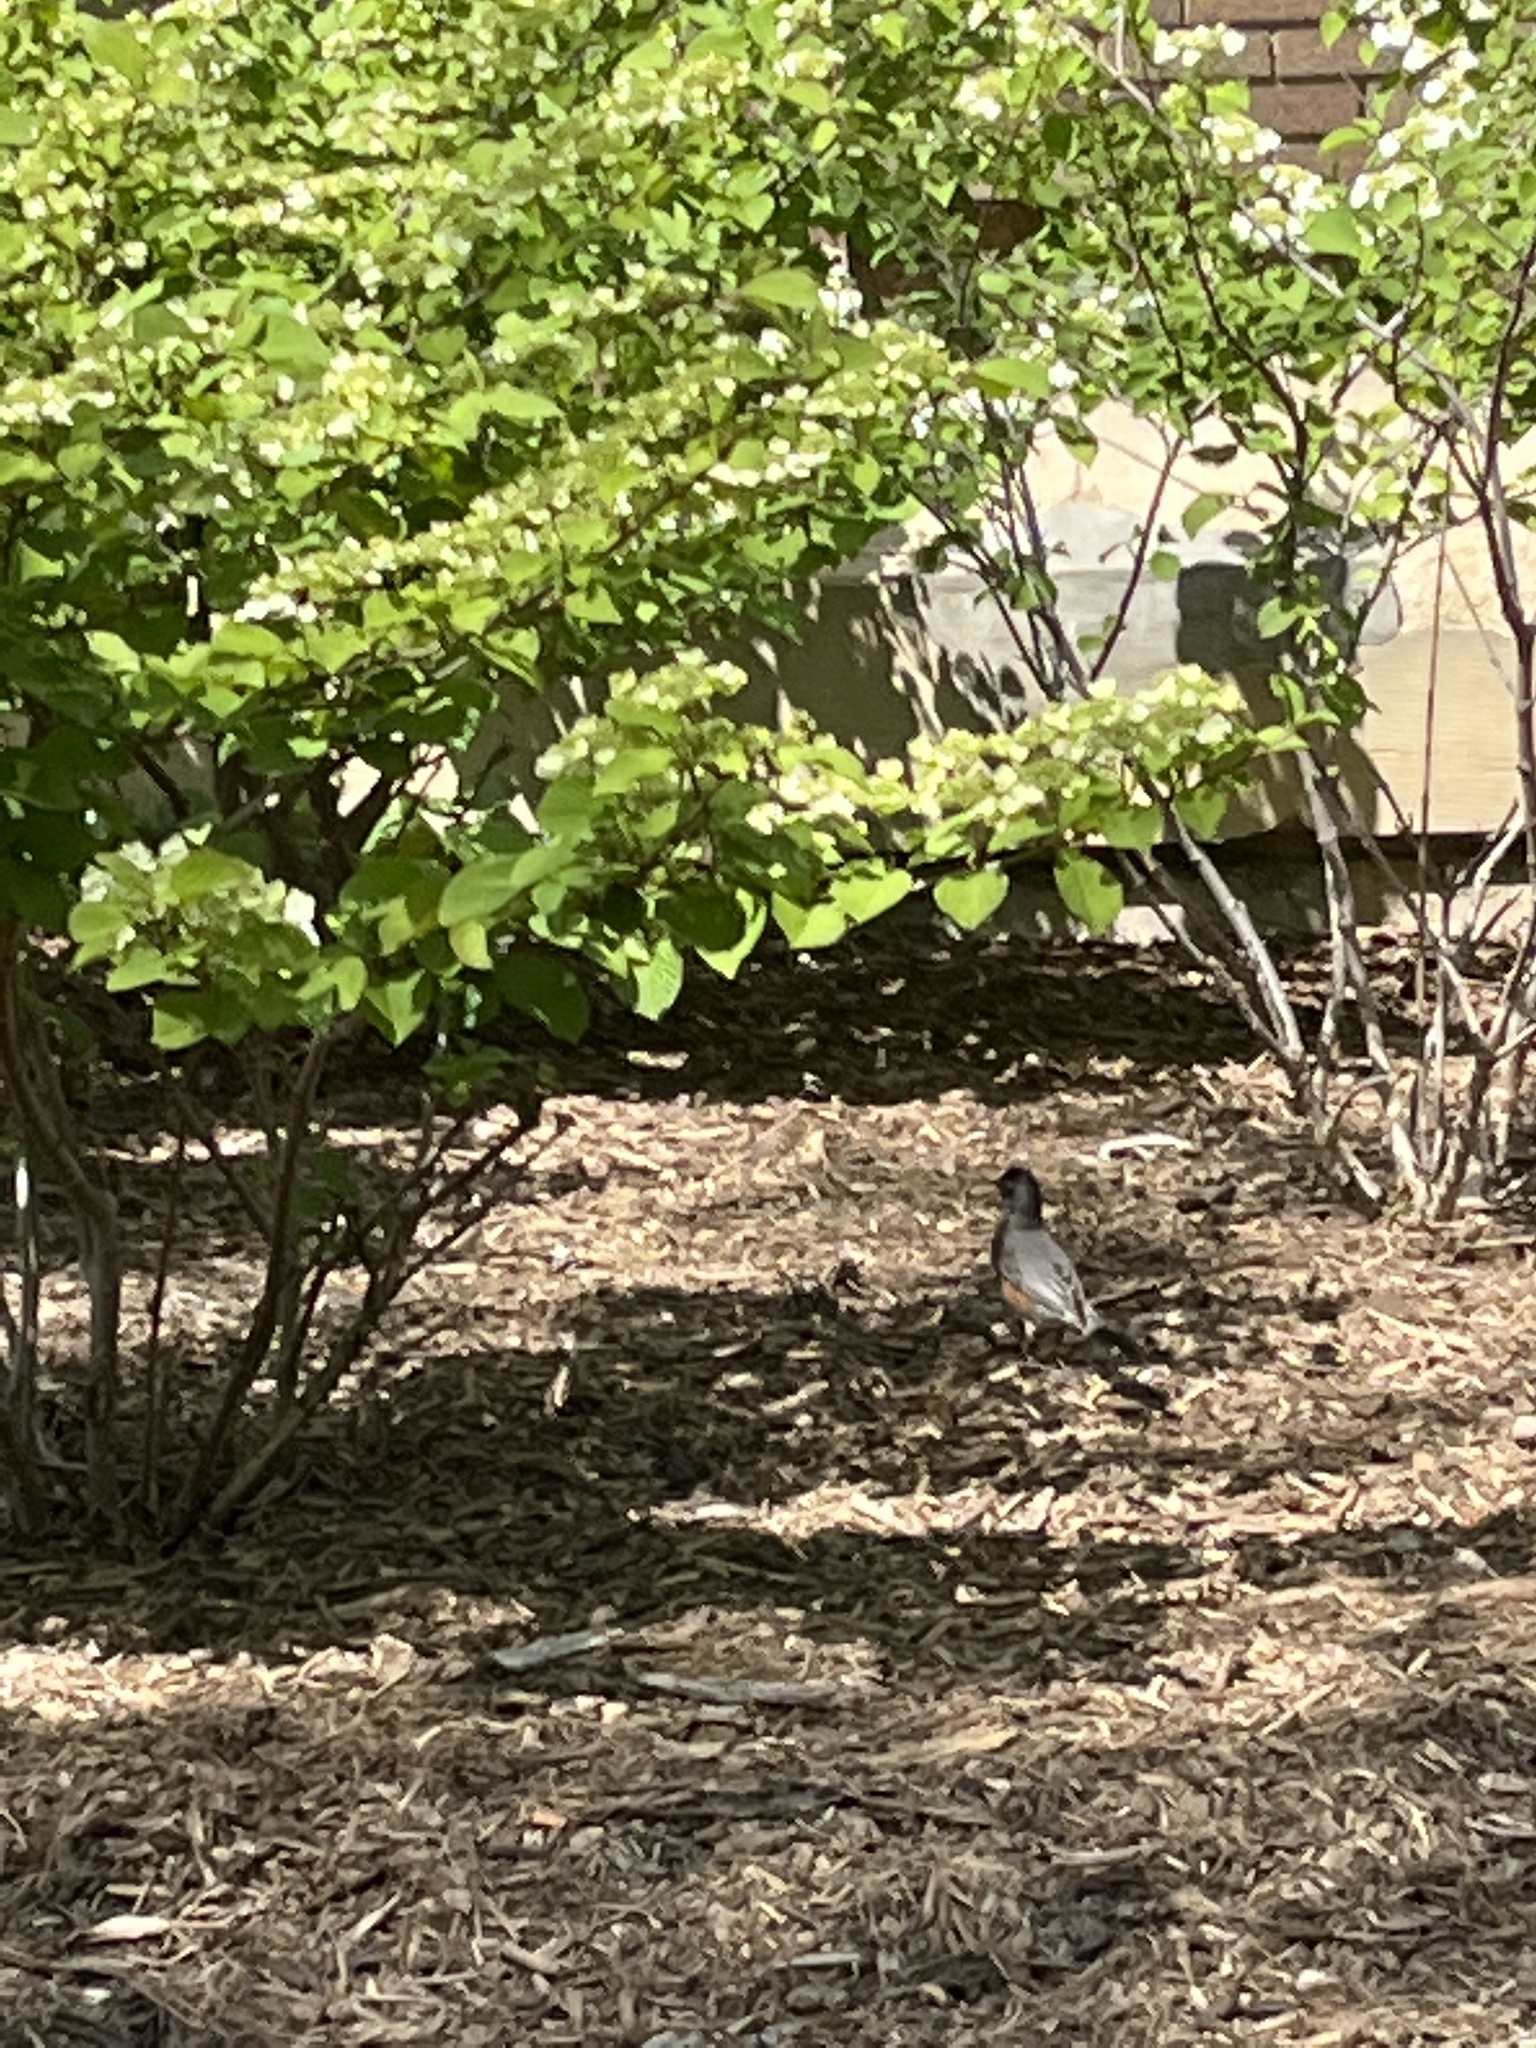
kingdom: Animalia
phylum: Chordata
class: Aves
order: Passeriformes
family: Turdidae
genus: Turdus
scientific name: Turdus migratorius
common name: American robin
